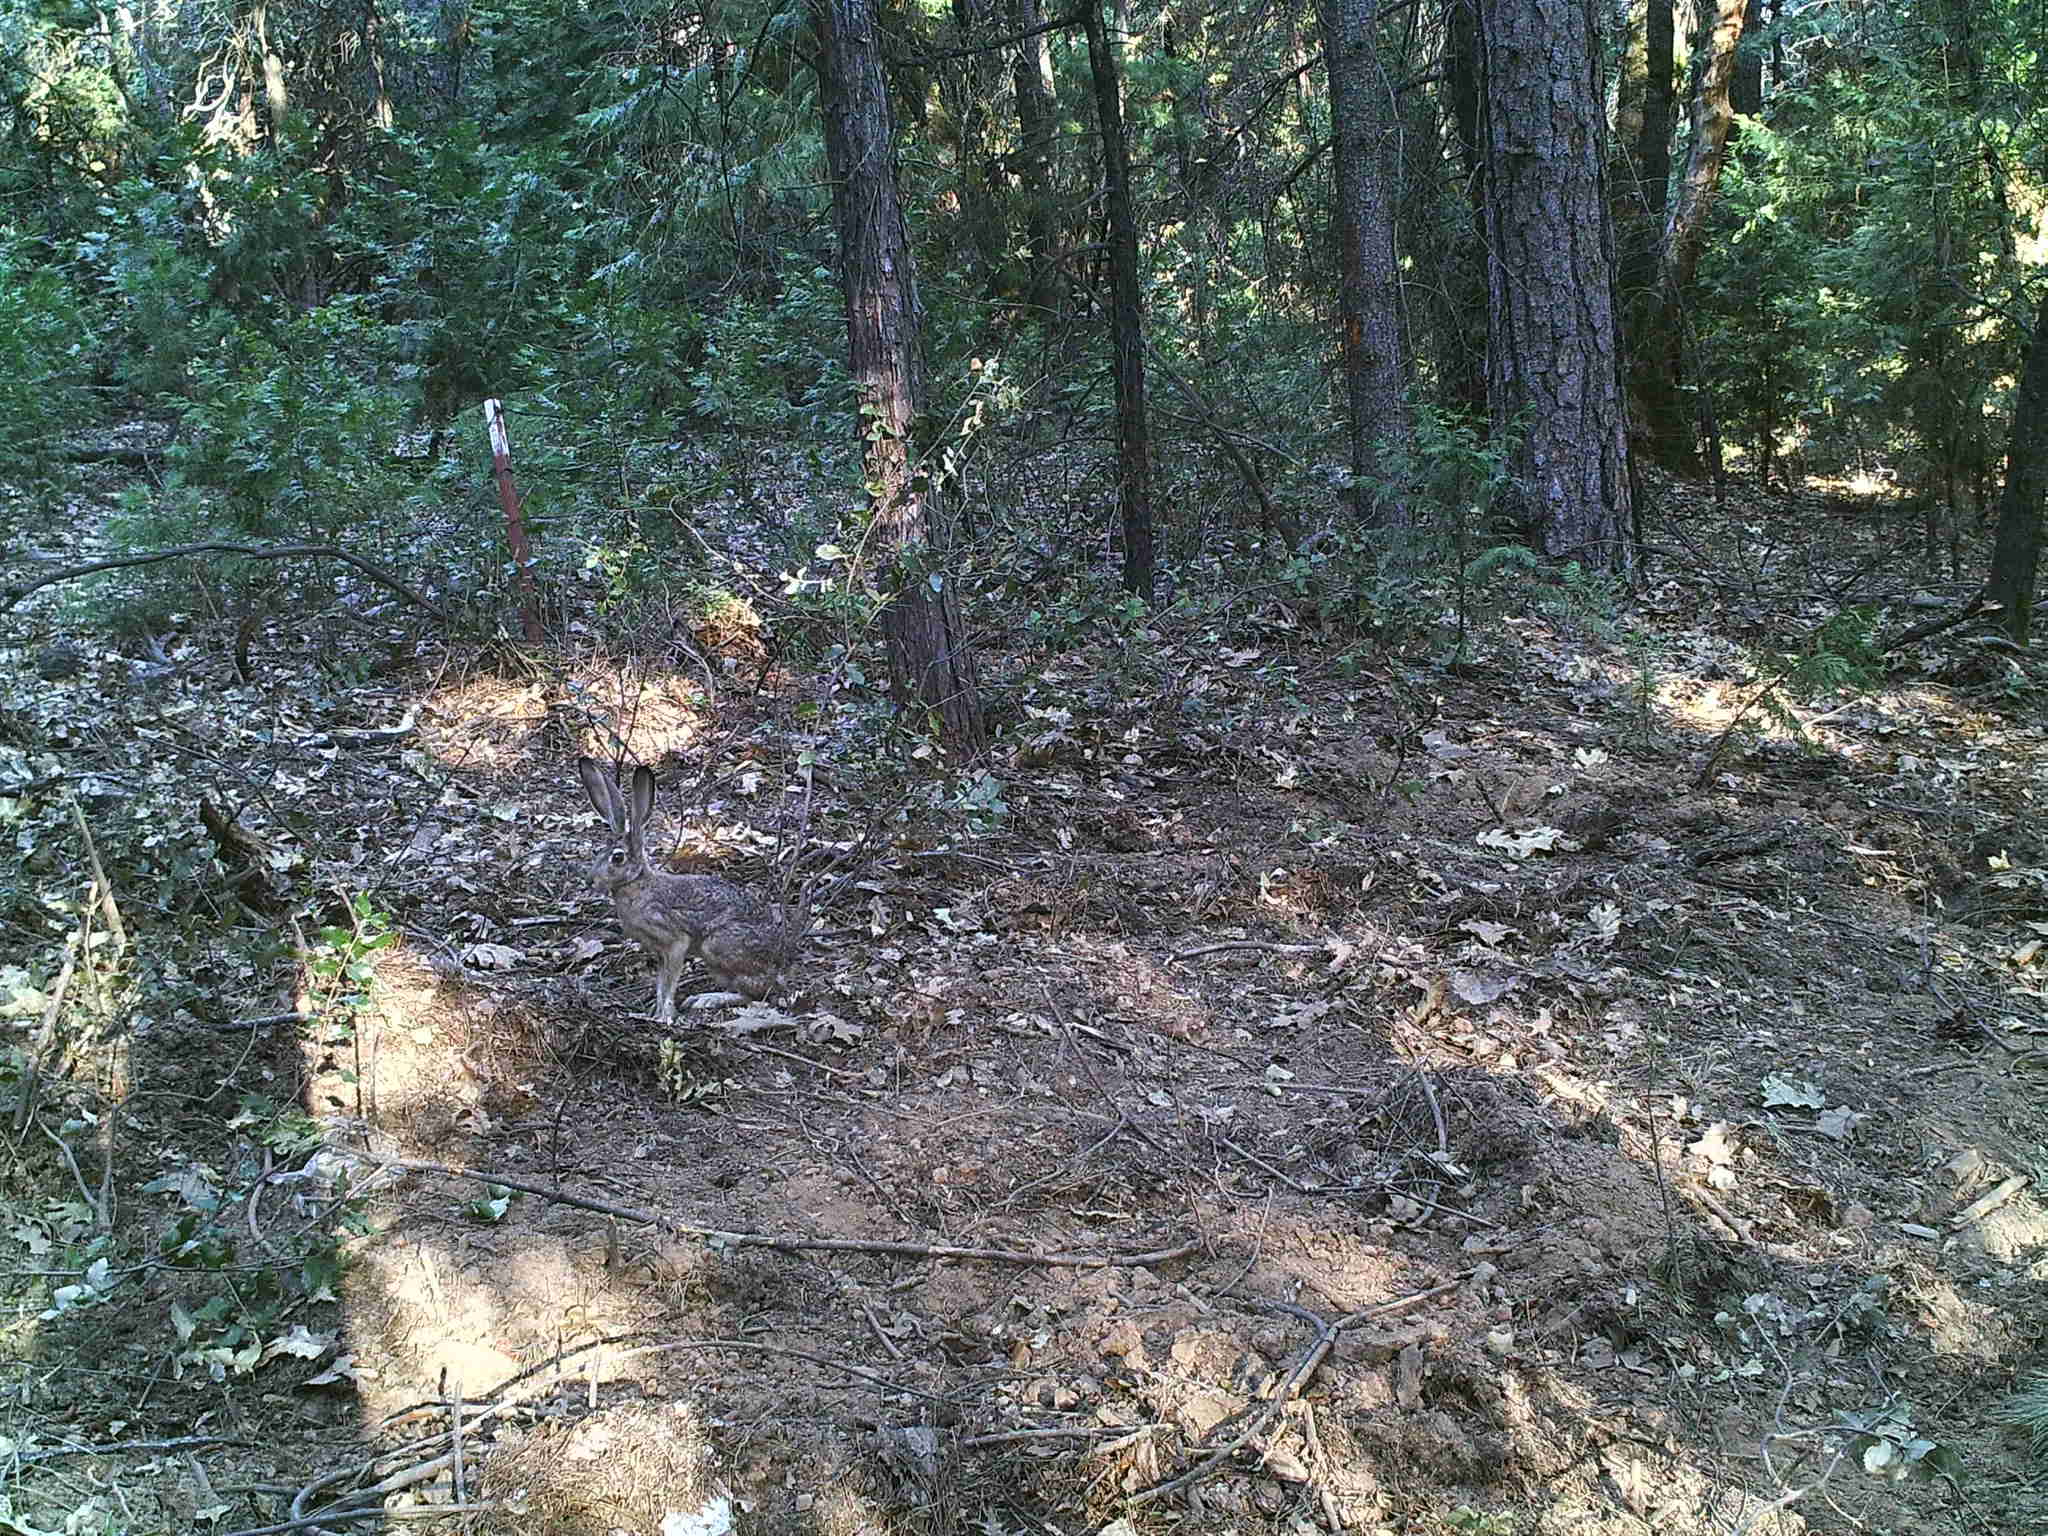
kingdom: Animalia
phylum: Chordata
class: Mammalia
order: Lagomorpha
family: Leporidae
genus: Lepus
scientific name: Lepus californicus
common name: Black-tailed jackrabbit
